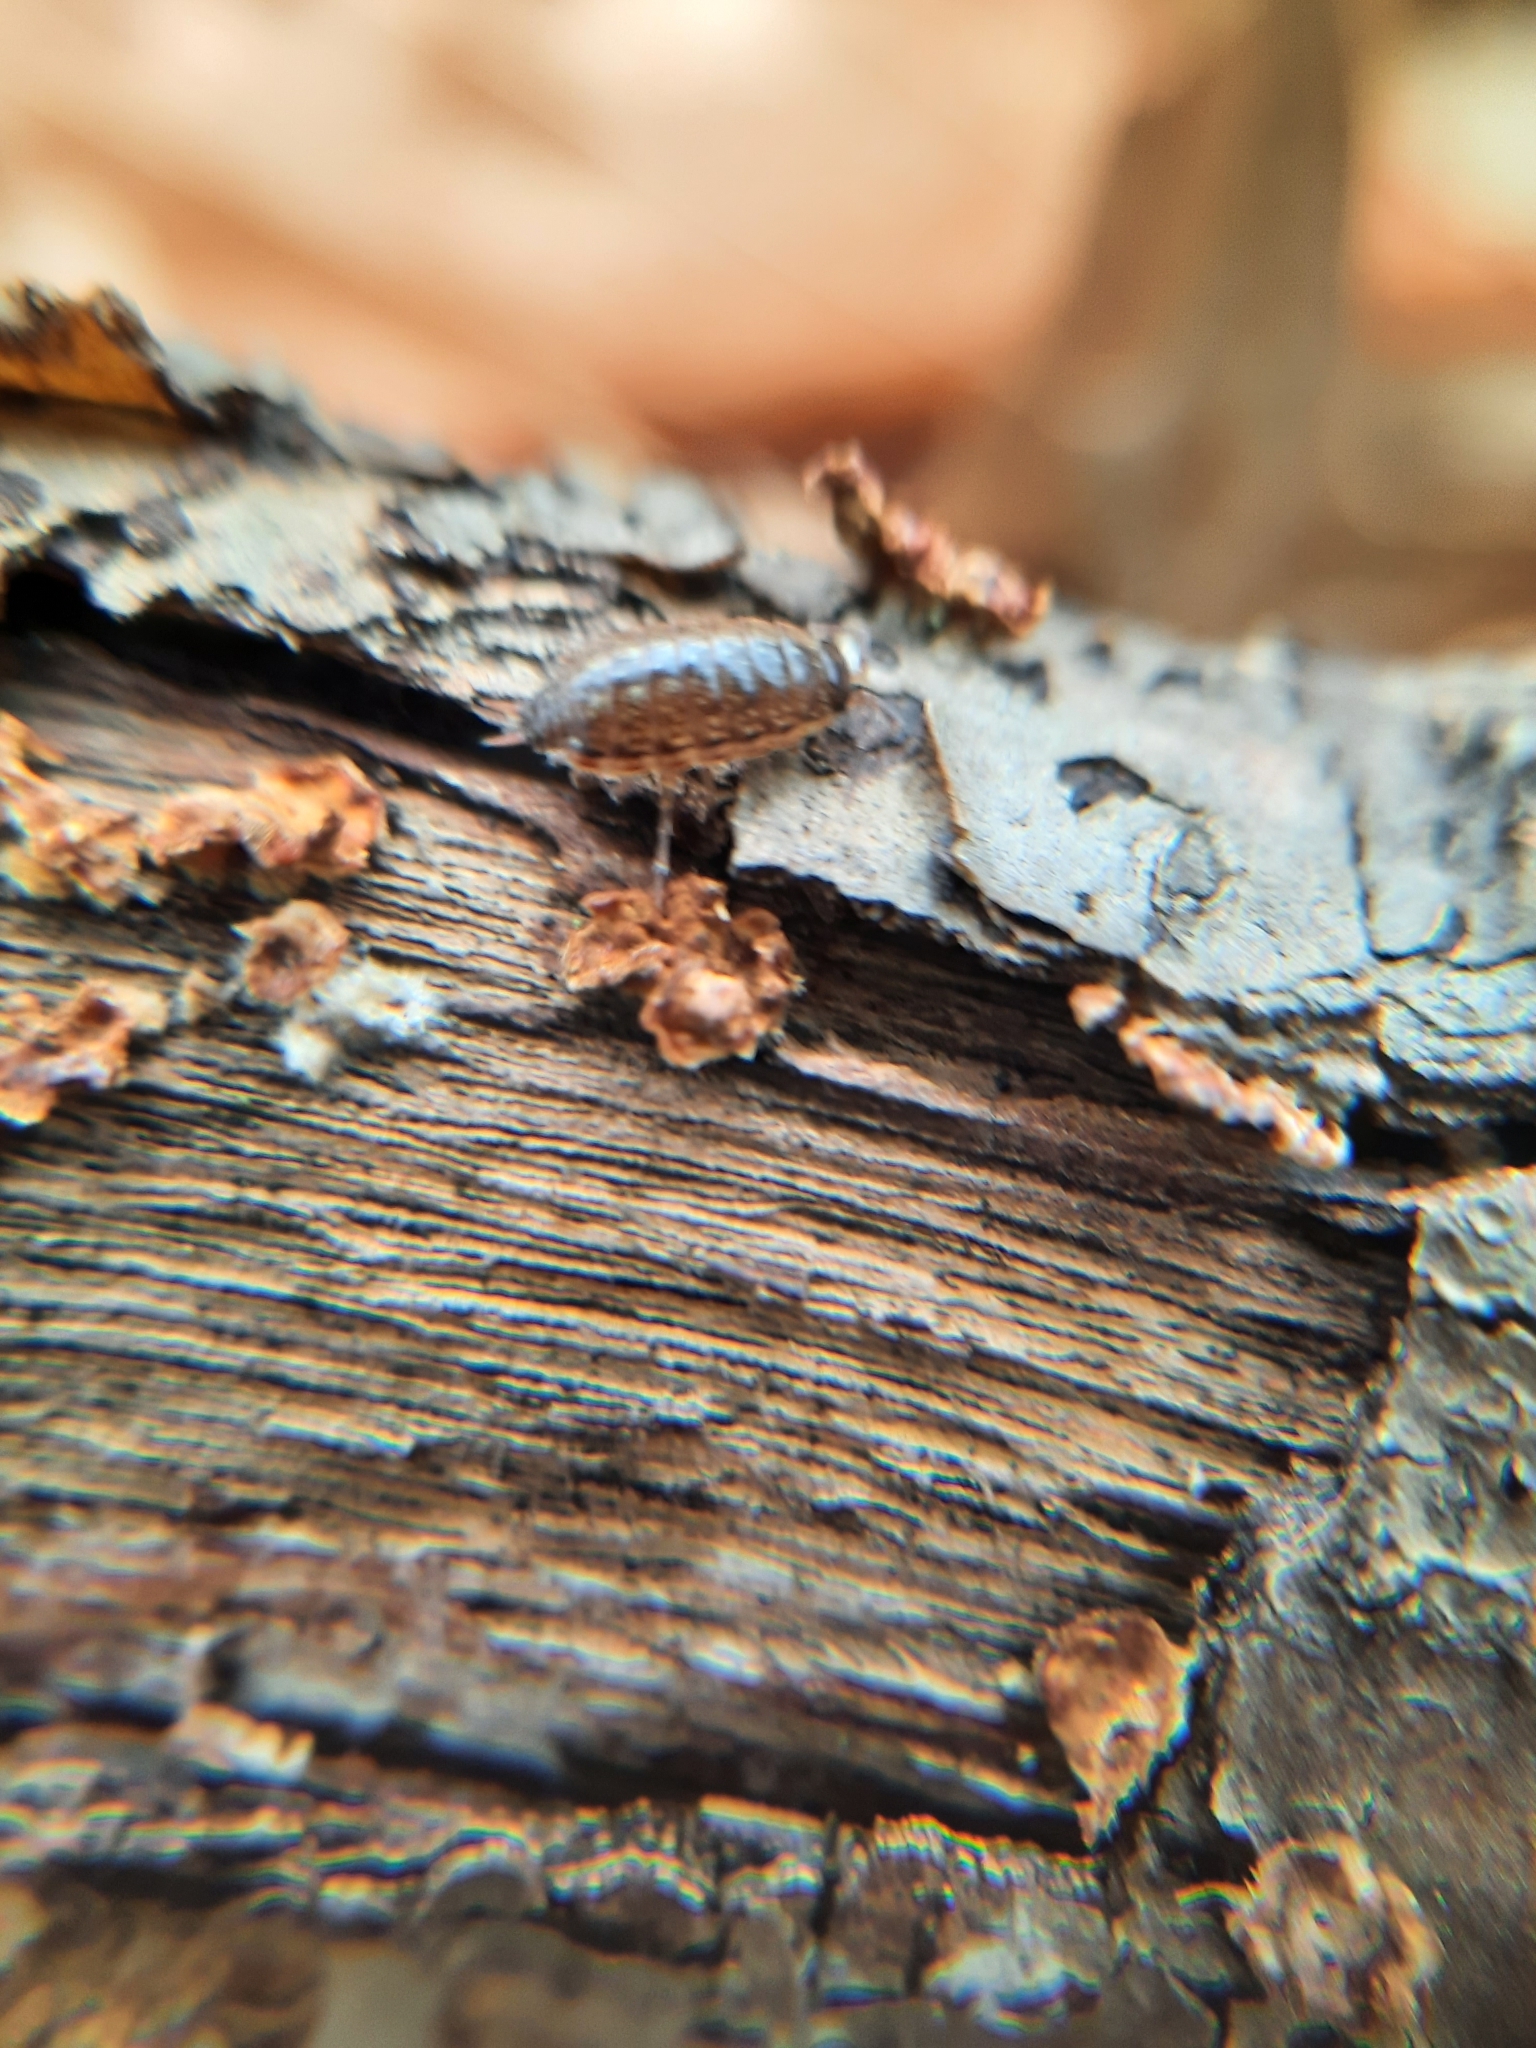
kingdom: Animalia
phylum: Arthropoda
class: Malacostraca
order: Isopoda
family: Philosciidae
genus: Philoscia
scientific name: Philoscia muscorum
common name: Common striped woodlouse
